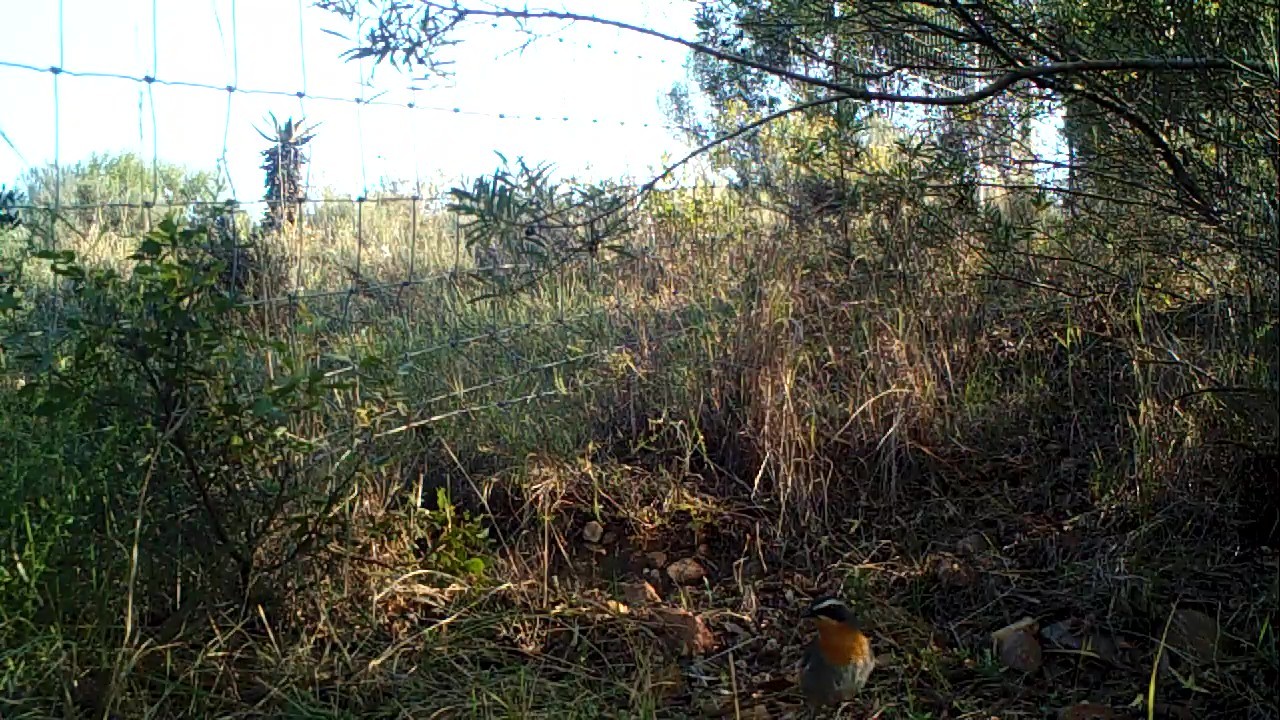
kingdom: Animalia
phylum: Chordata
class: Aves
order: Passeriformes
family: Muscicapidae
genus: Cossypha
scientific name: Cossypha caffra
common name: Cape robin-chat
